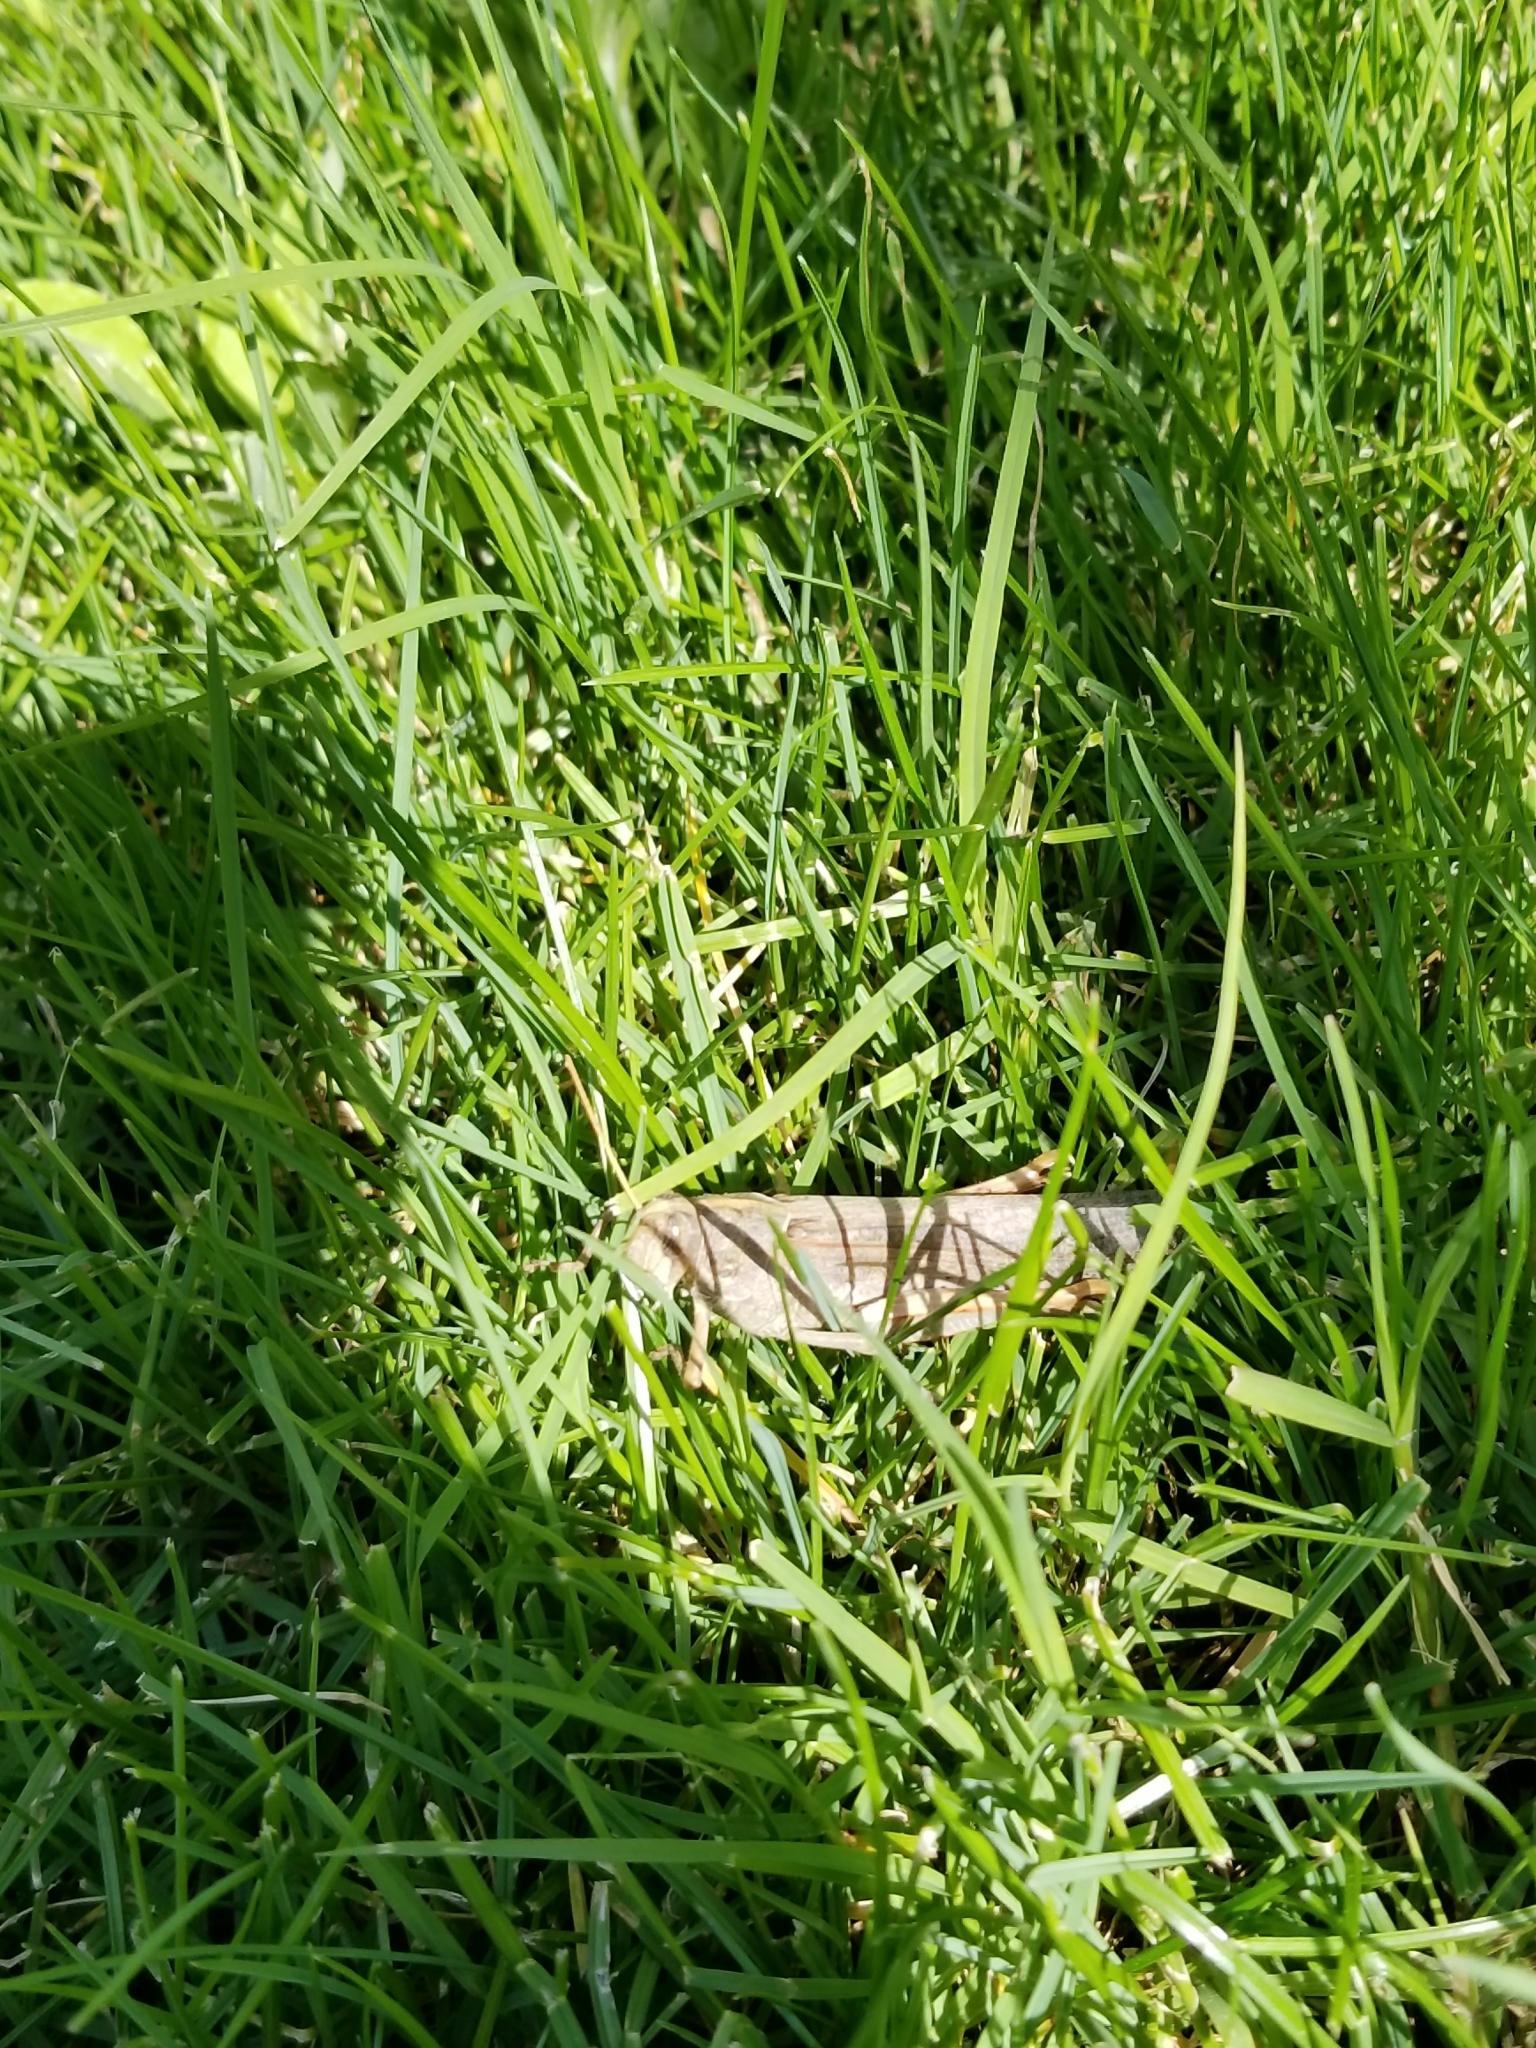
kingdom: Animalia
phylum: Arthropoda
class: Insecta
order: Orthoptera
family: Acrididae
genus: Schistocerca
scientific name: Schistocerca nitens
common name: Vagrant grasshopper
